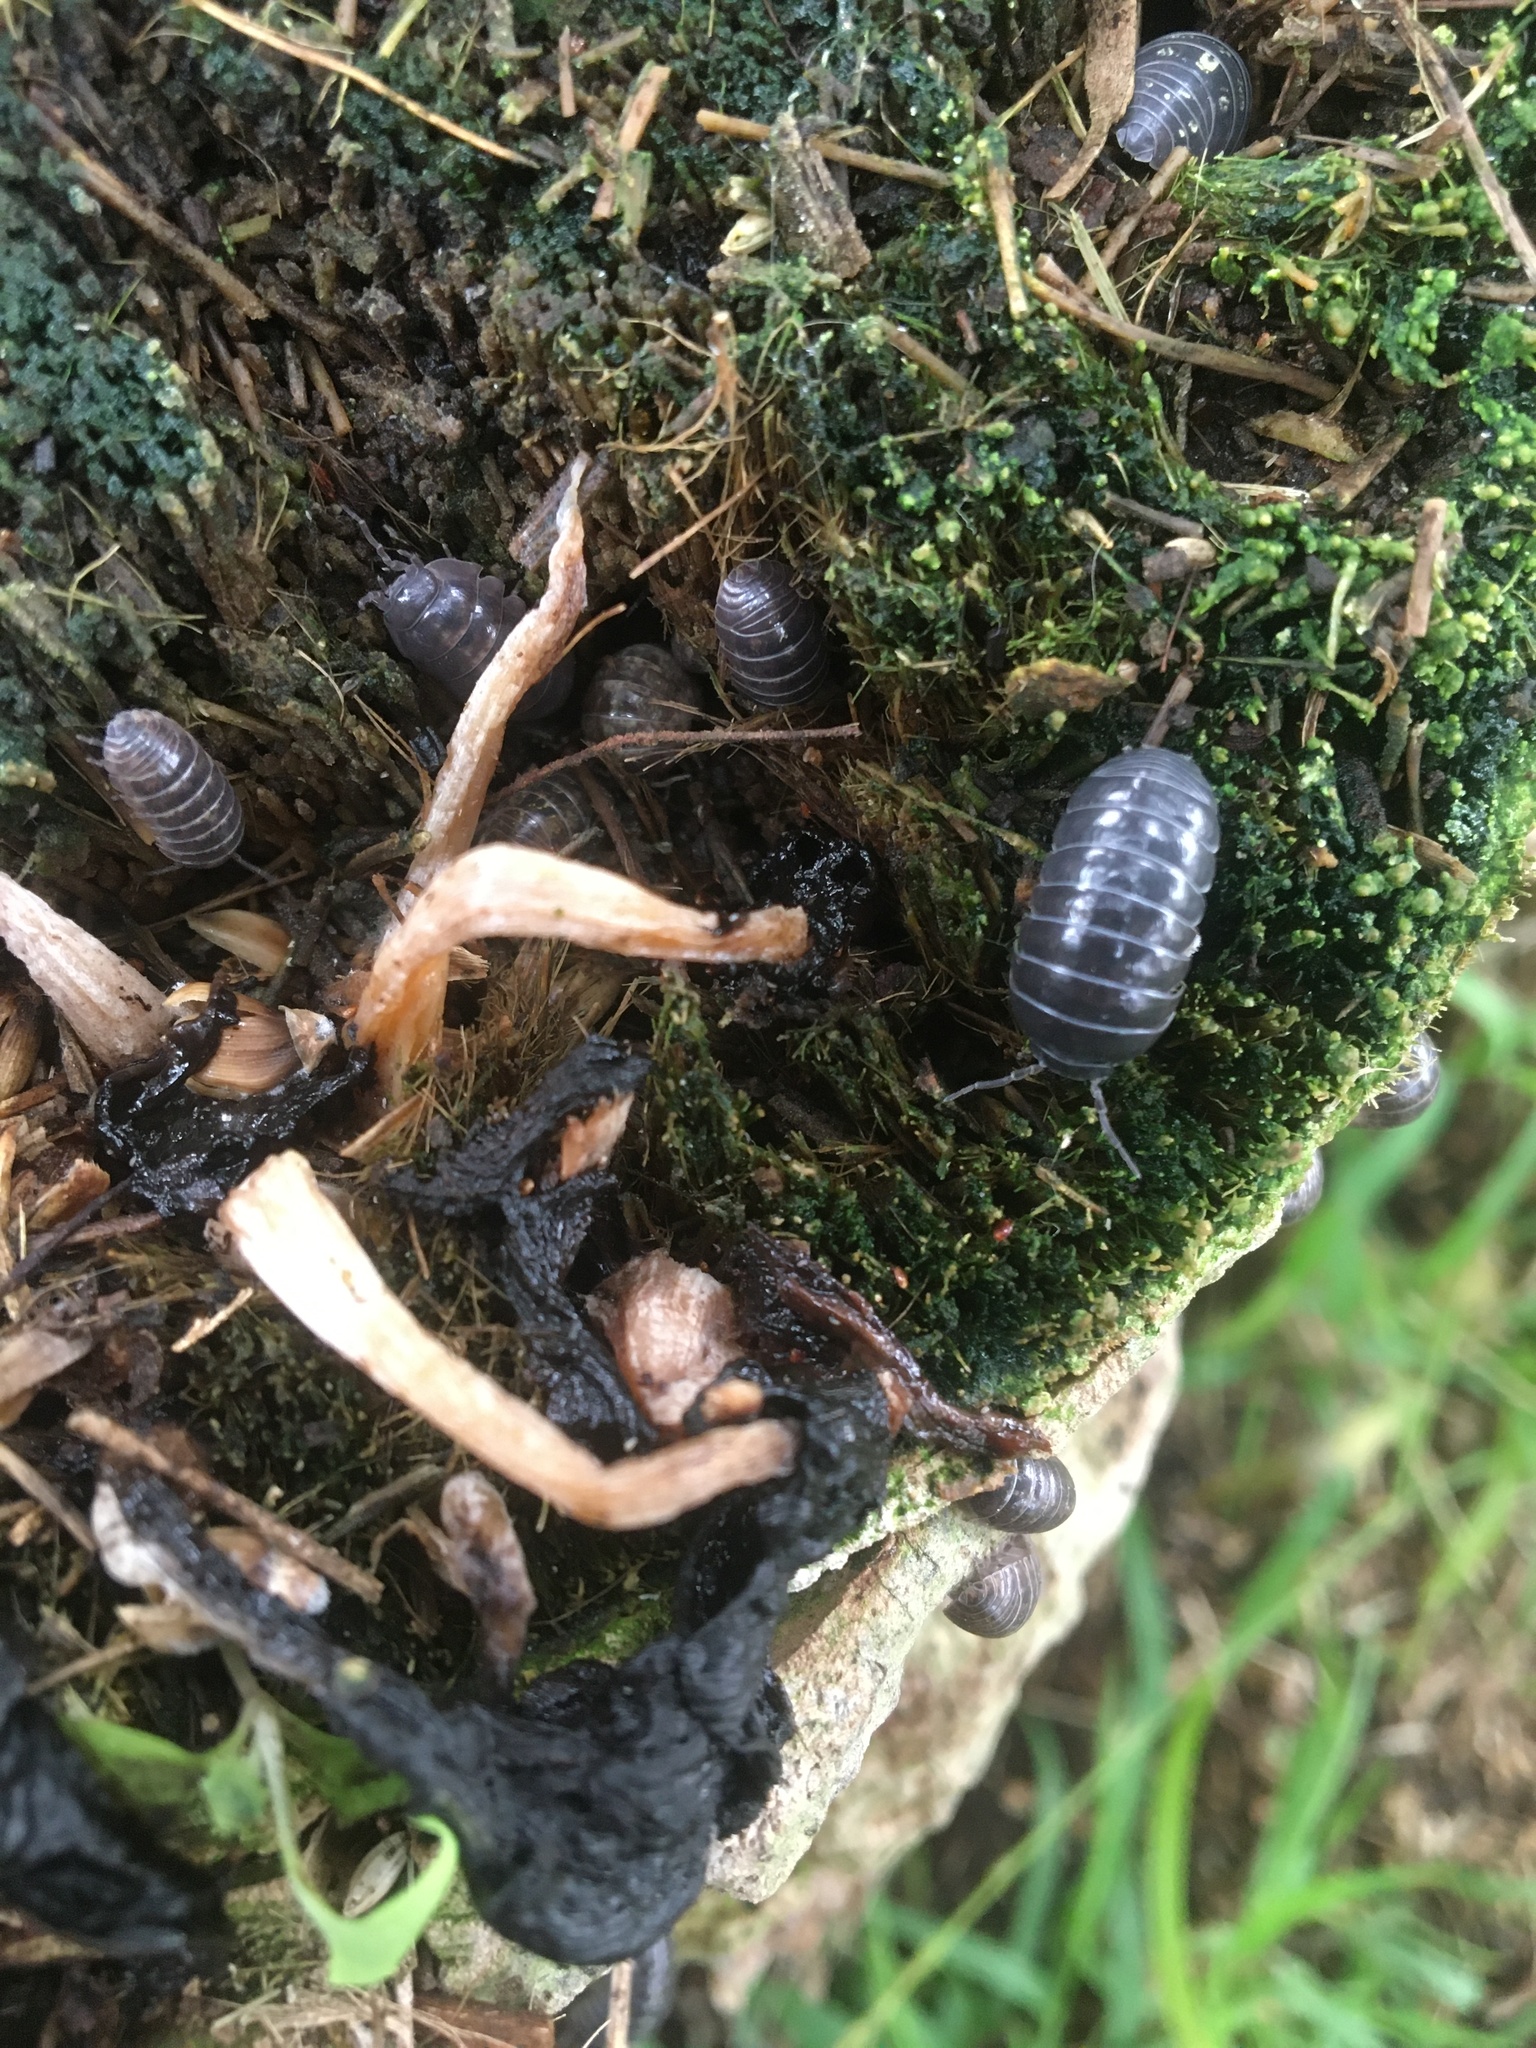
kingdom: Animalia
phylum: Arthropoda
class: Malacostraca
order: Isopoda
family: Armadillidiidae
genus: Armadillidium
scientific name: Armadillidium vulgare
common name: Common pill woodlouse
